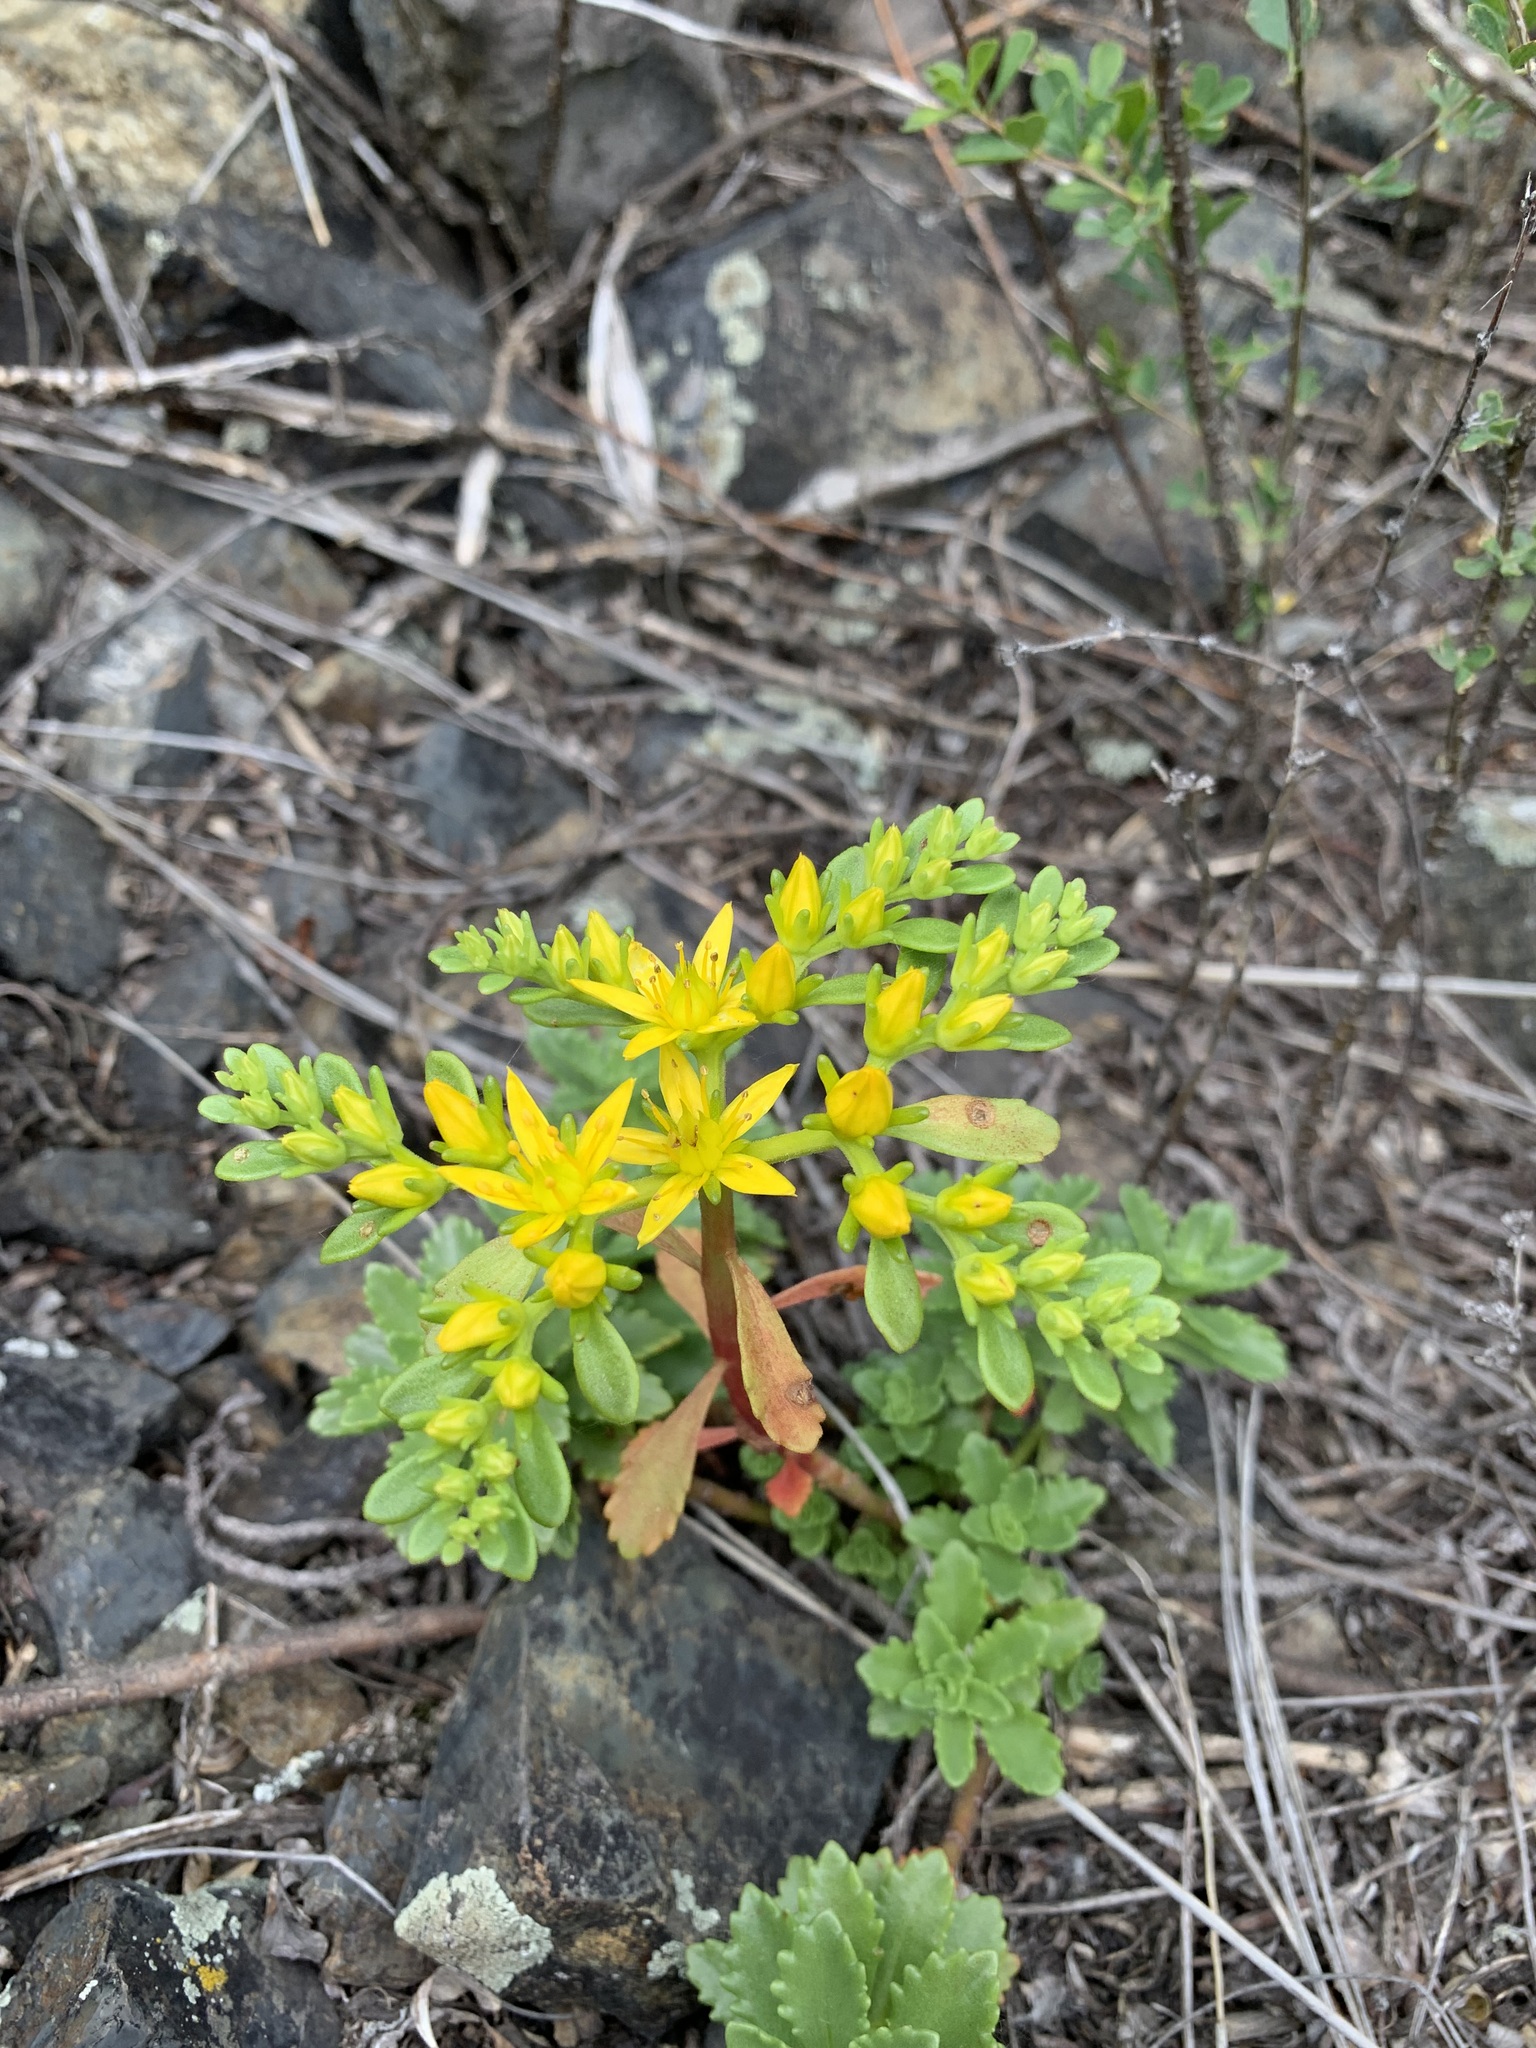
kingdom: Plantae
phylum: Tracheophyta
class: Magnoliopsida
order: Saxifragales
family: Crassulaceae
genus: Phedimus
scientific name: Phedimus hybridus
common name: Hybrid stonecrop
